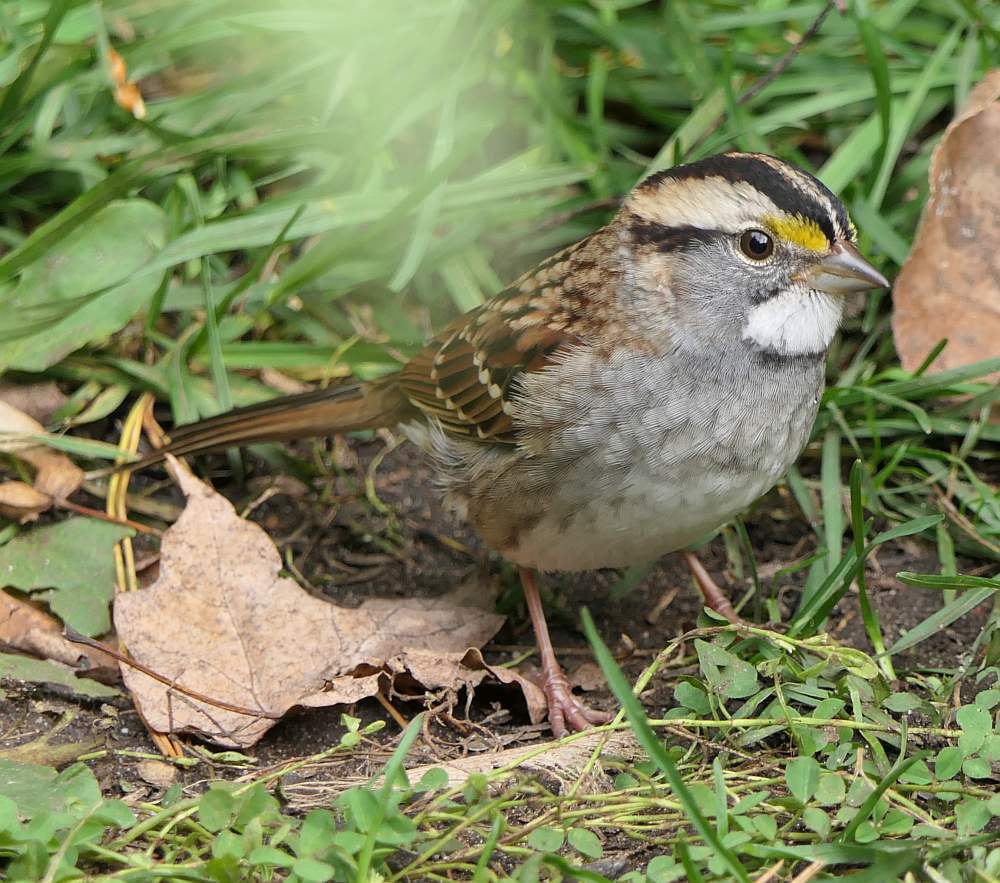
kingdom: Animalia
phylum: Chordata
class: Aves
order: Passeriformes
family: Passerellidae
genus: Zonotrichia
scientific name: Zonotrichia albicollis
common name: White-throated sparrow
